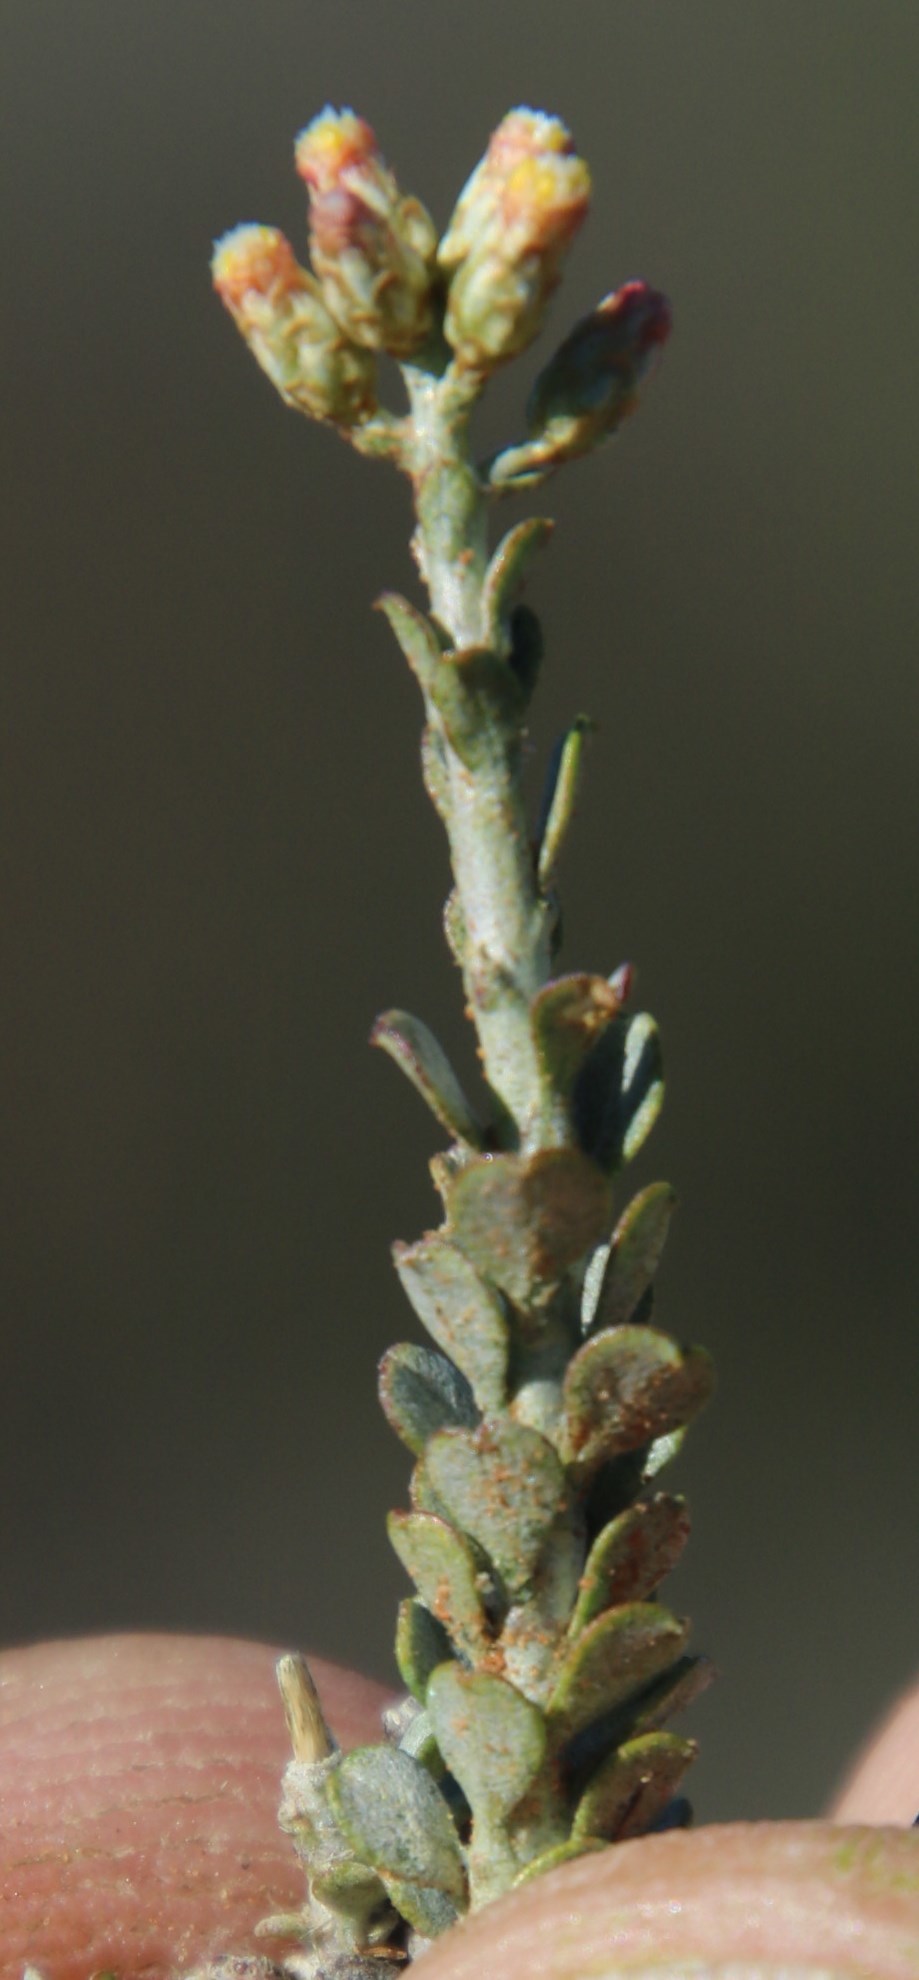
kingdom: Plantae
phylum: Tracheophyta
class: Magnoliopsida
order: Asterales
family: Asteraceae
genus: Helichrysum
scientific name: Helichrysum pentzioides
